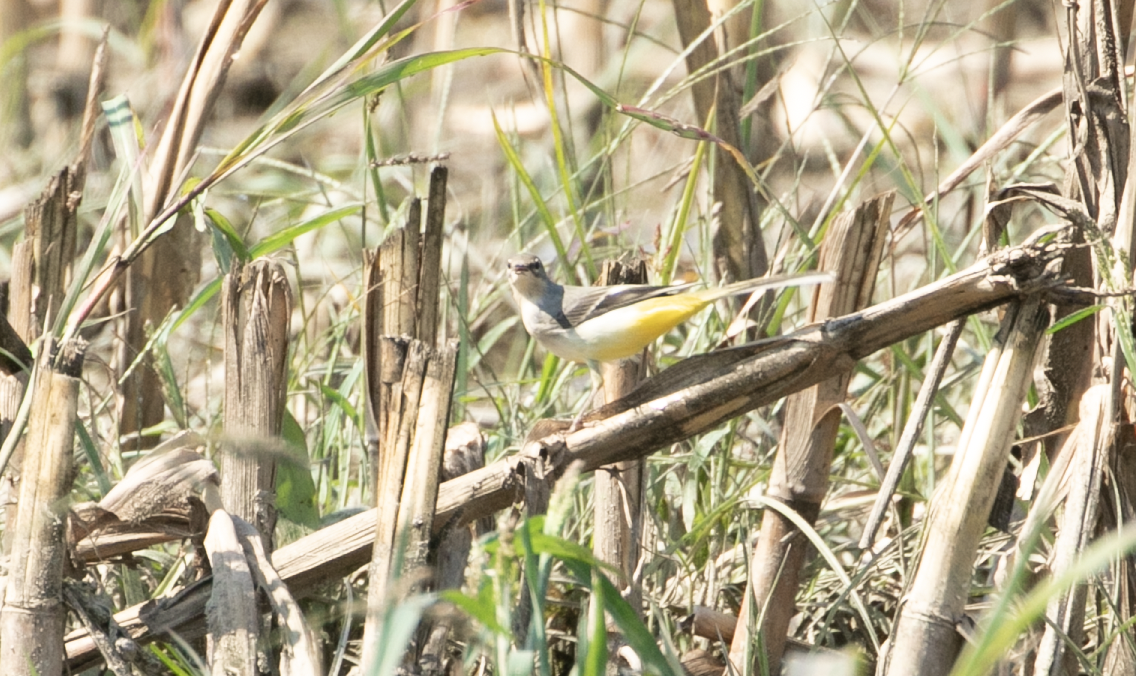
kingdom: Animalia
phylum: Chordata
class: Aves
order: Passeriformes
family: Motacillidae
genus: Motacilla
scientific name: Motacilla cinerea
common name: Grey wagtail
